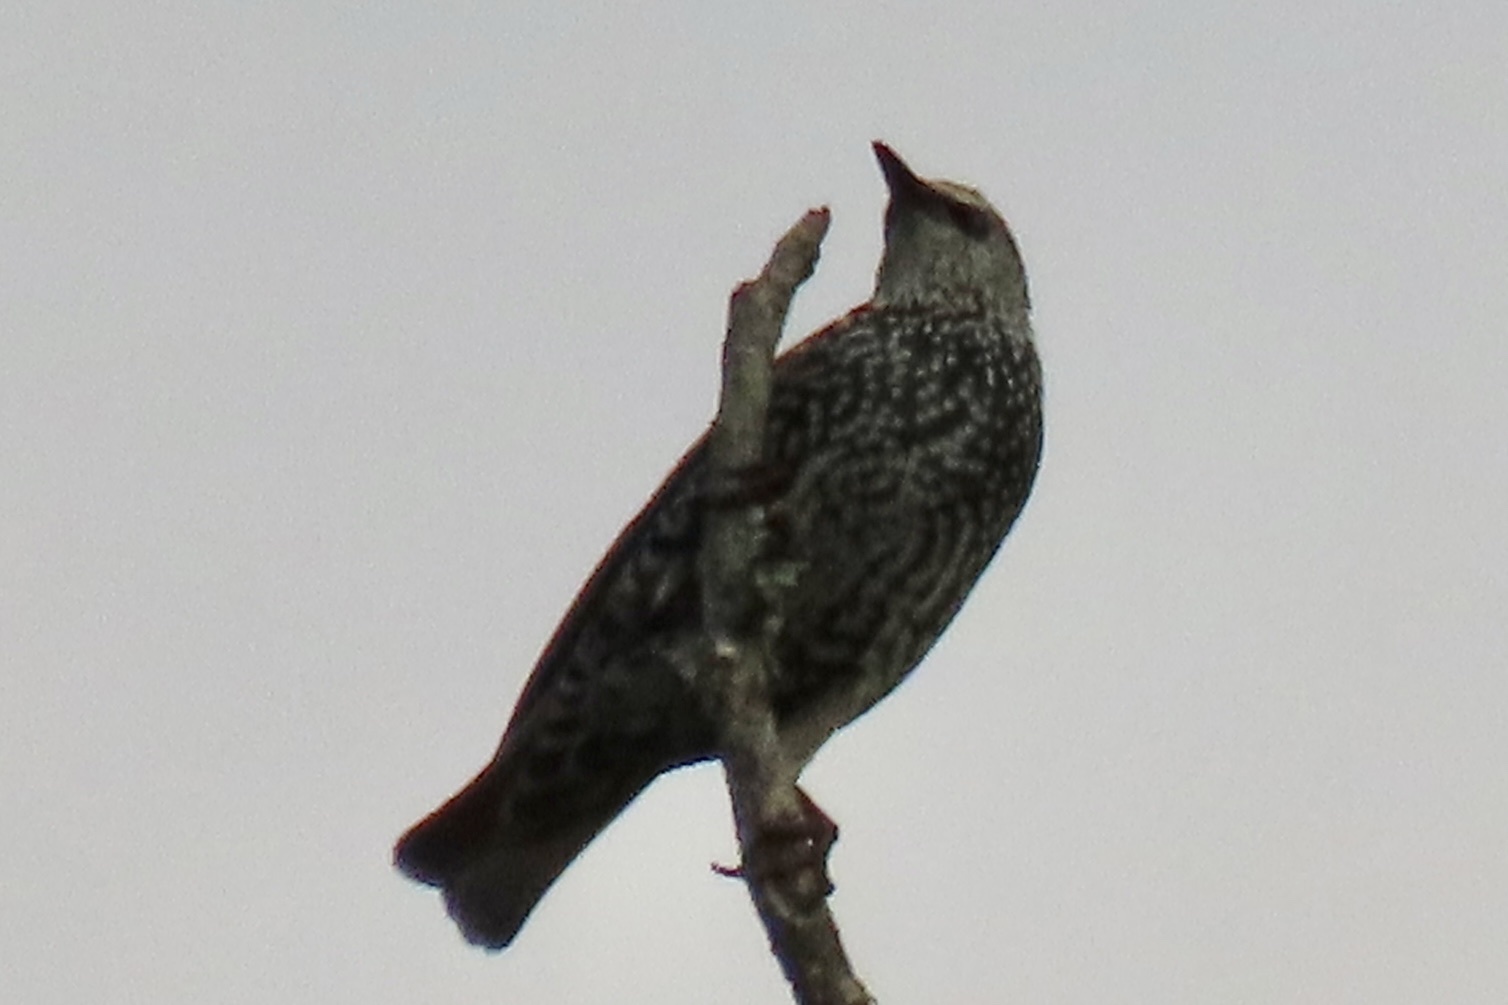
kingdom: Animalia
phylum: Chordata
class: Aves
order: Passeriformes
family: Sturnidae
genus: Sturnus
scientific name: Sturnus vulgaris
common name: Common starling
